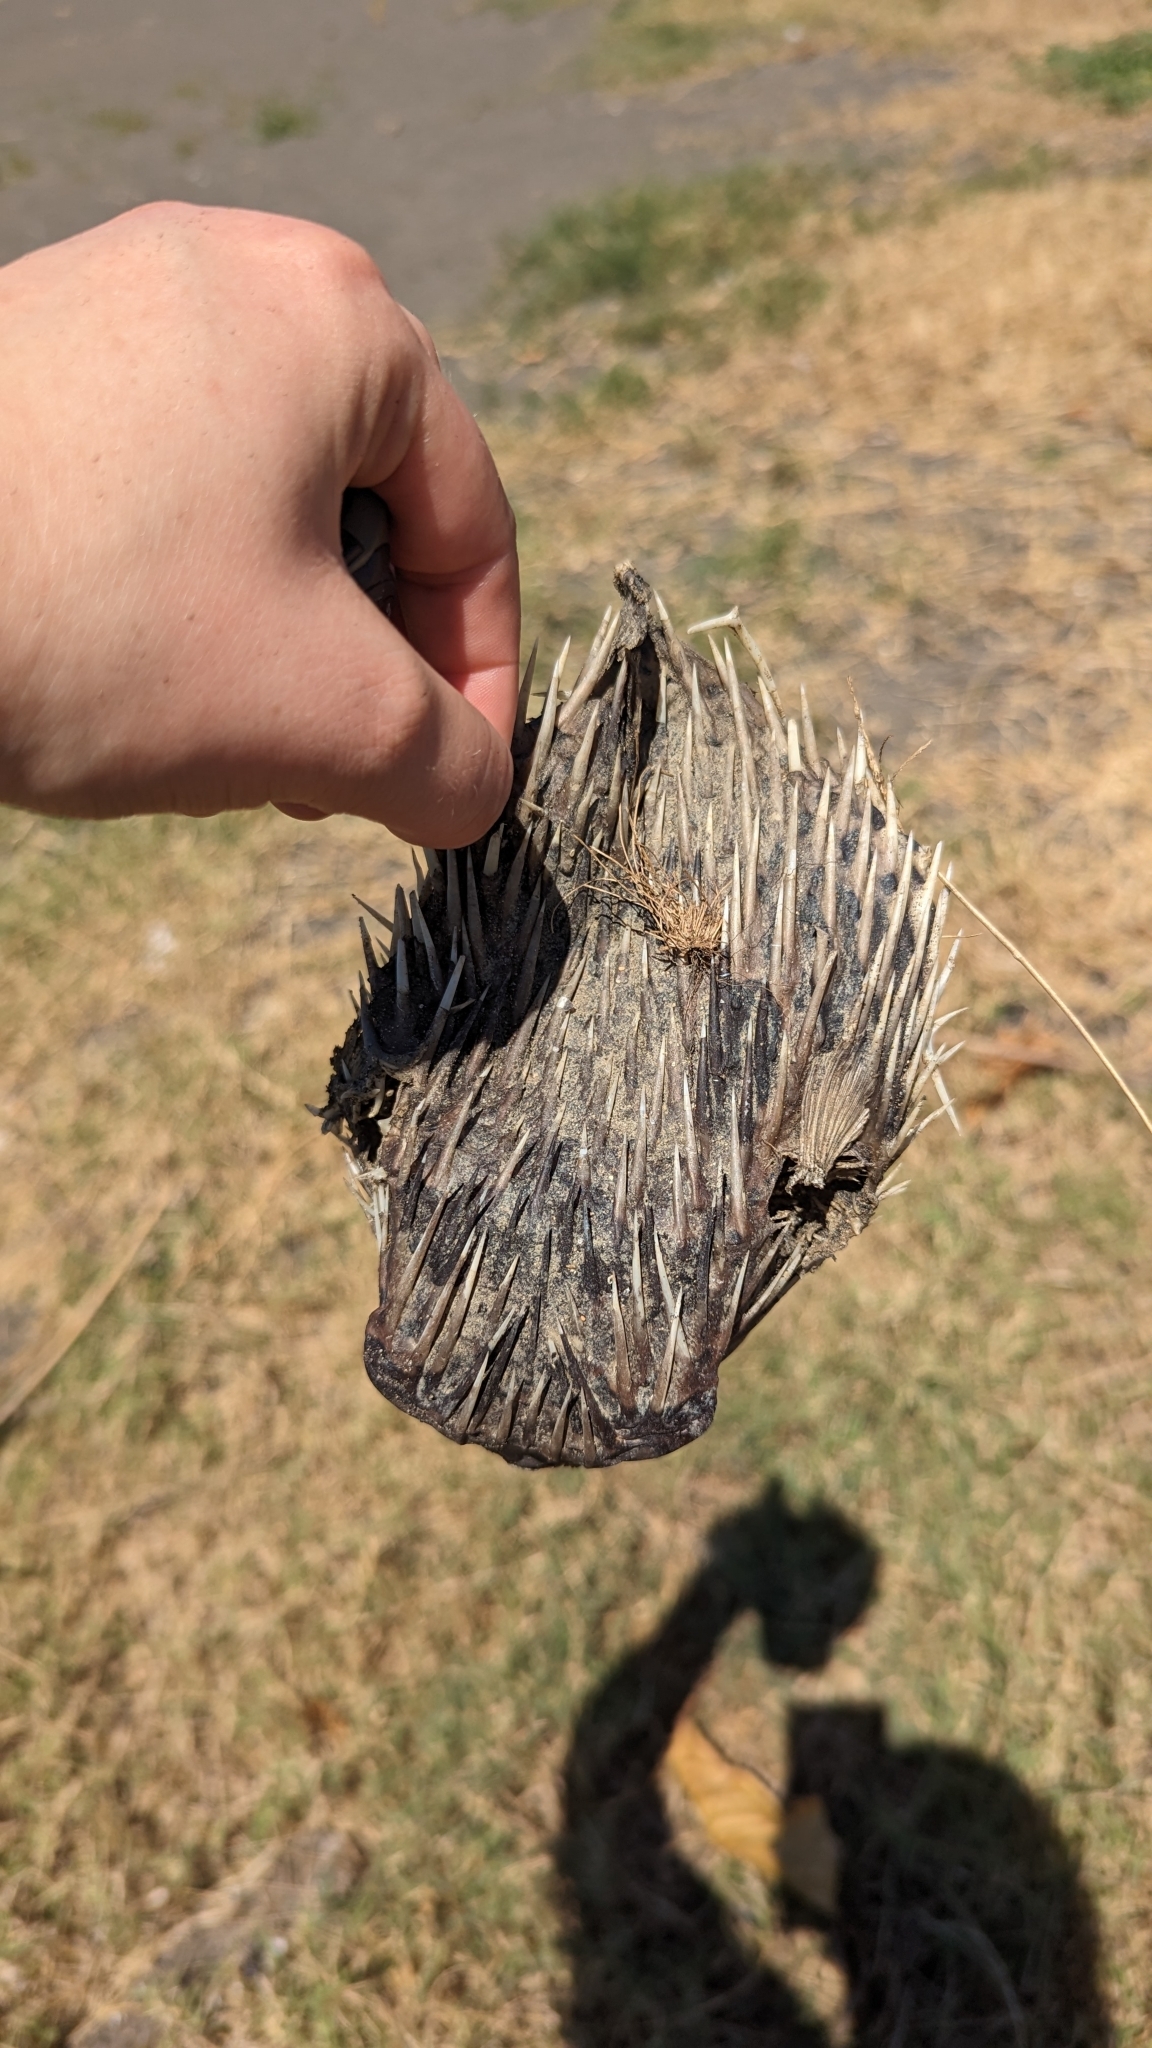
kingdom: Animalia
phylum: Chordata
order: Tetraodontiformes
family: Diodontidae
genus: Diodon
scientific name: Diodon holocanthus
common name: Balloonfish
